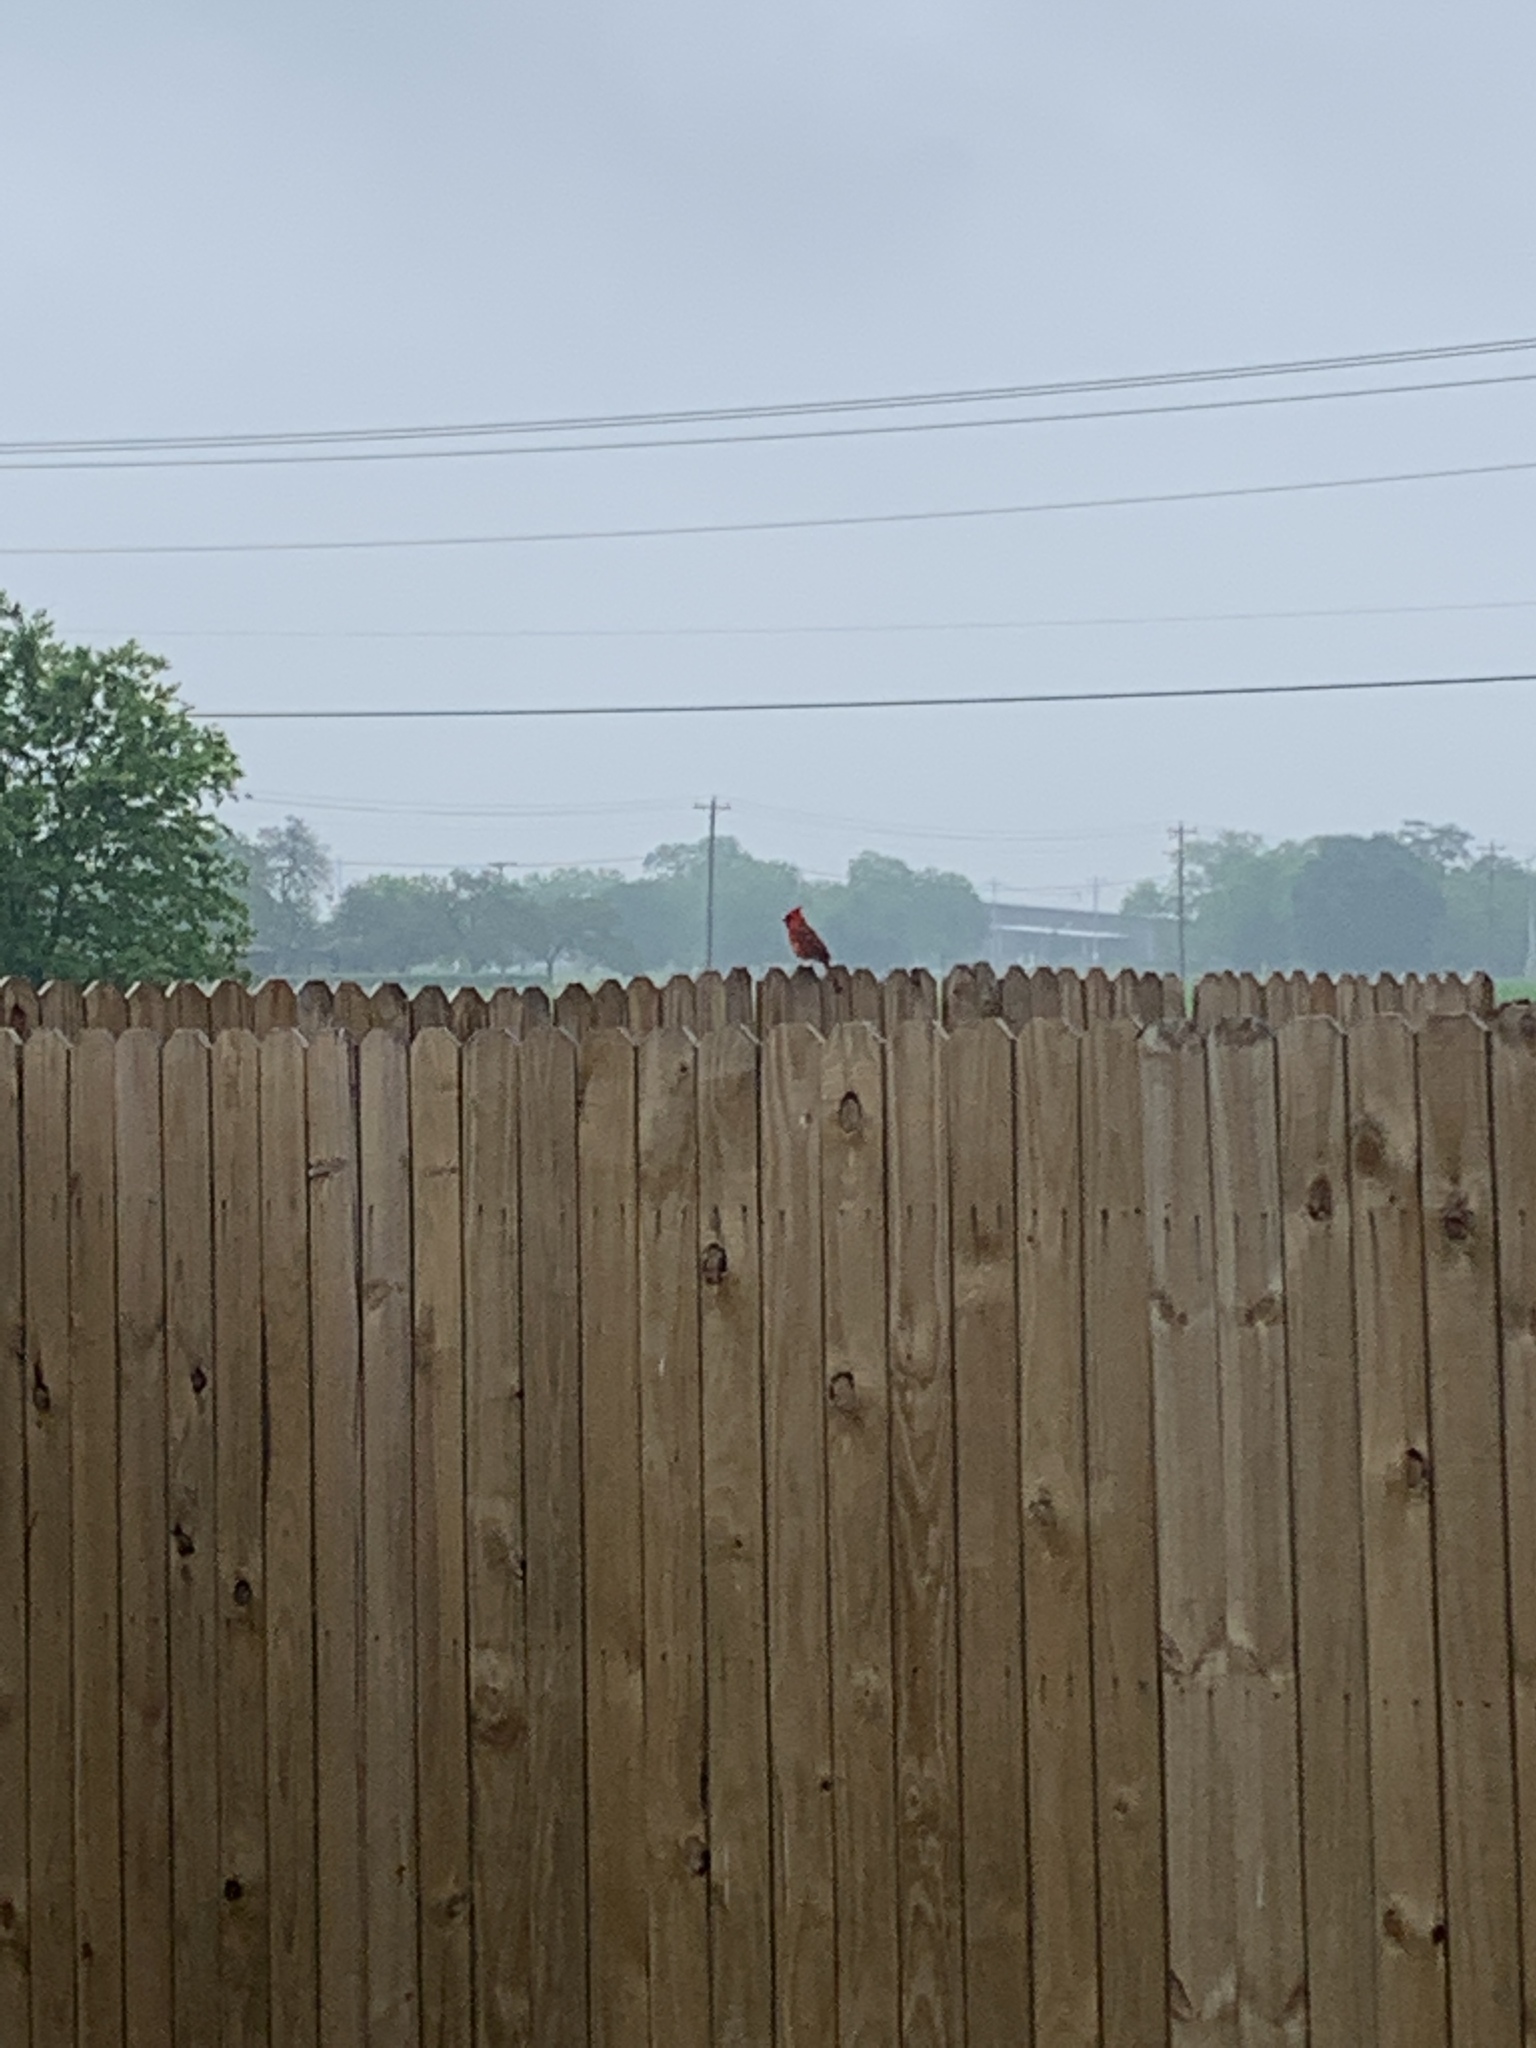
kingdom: Animalia
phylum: Chordata
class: Aves
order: Passeriformes
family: Cardinalidae
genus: Cardinalis
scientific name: Cardinalis cardinalis
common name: Northern cardinal
